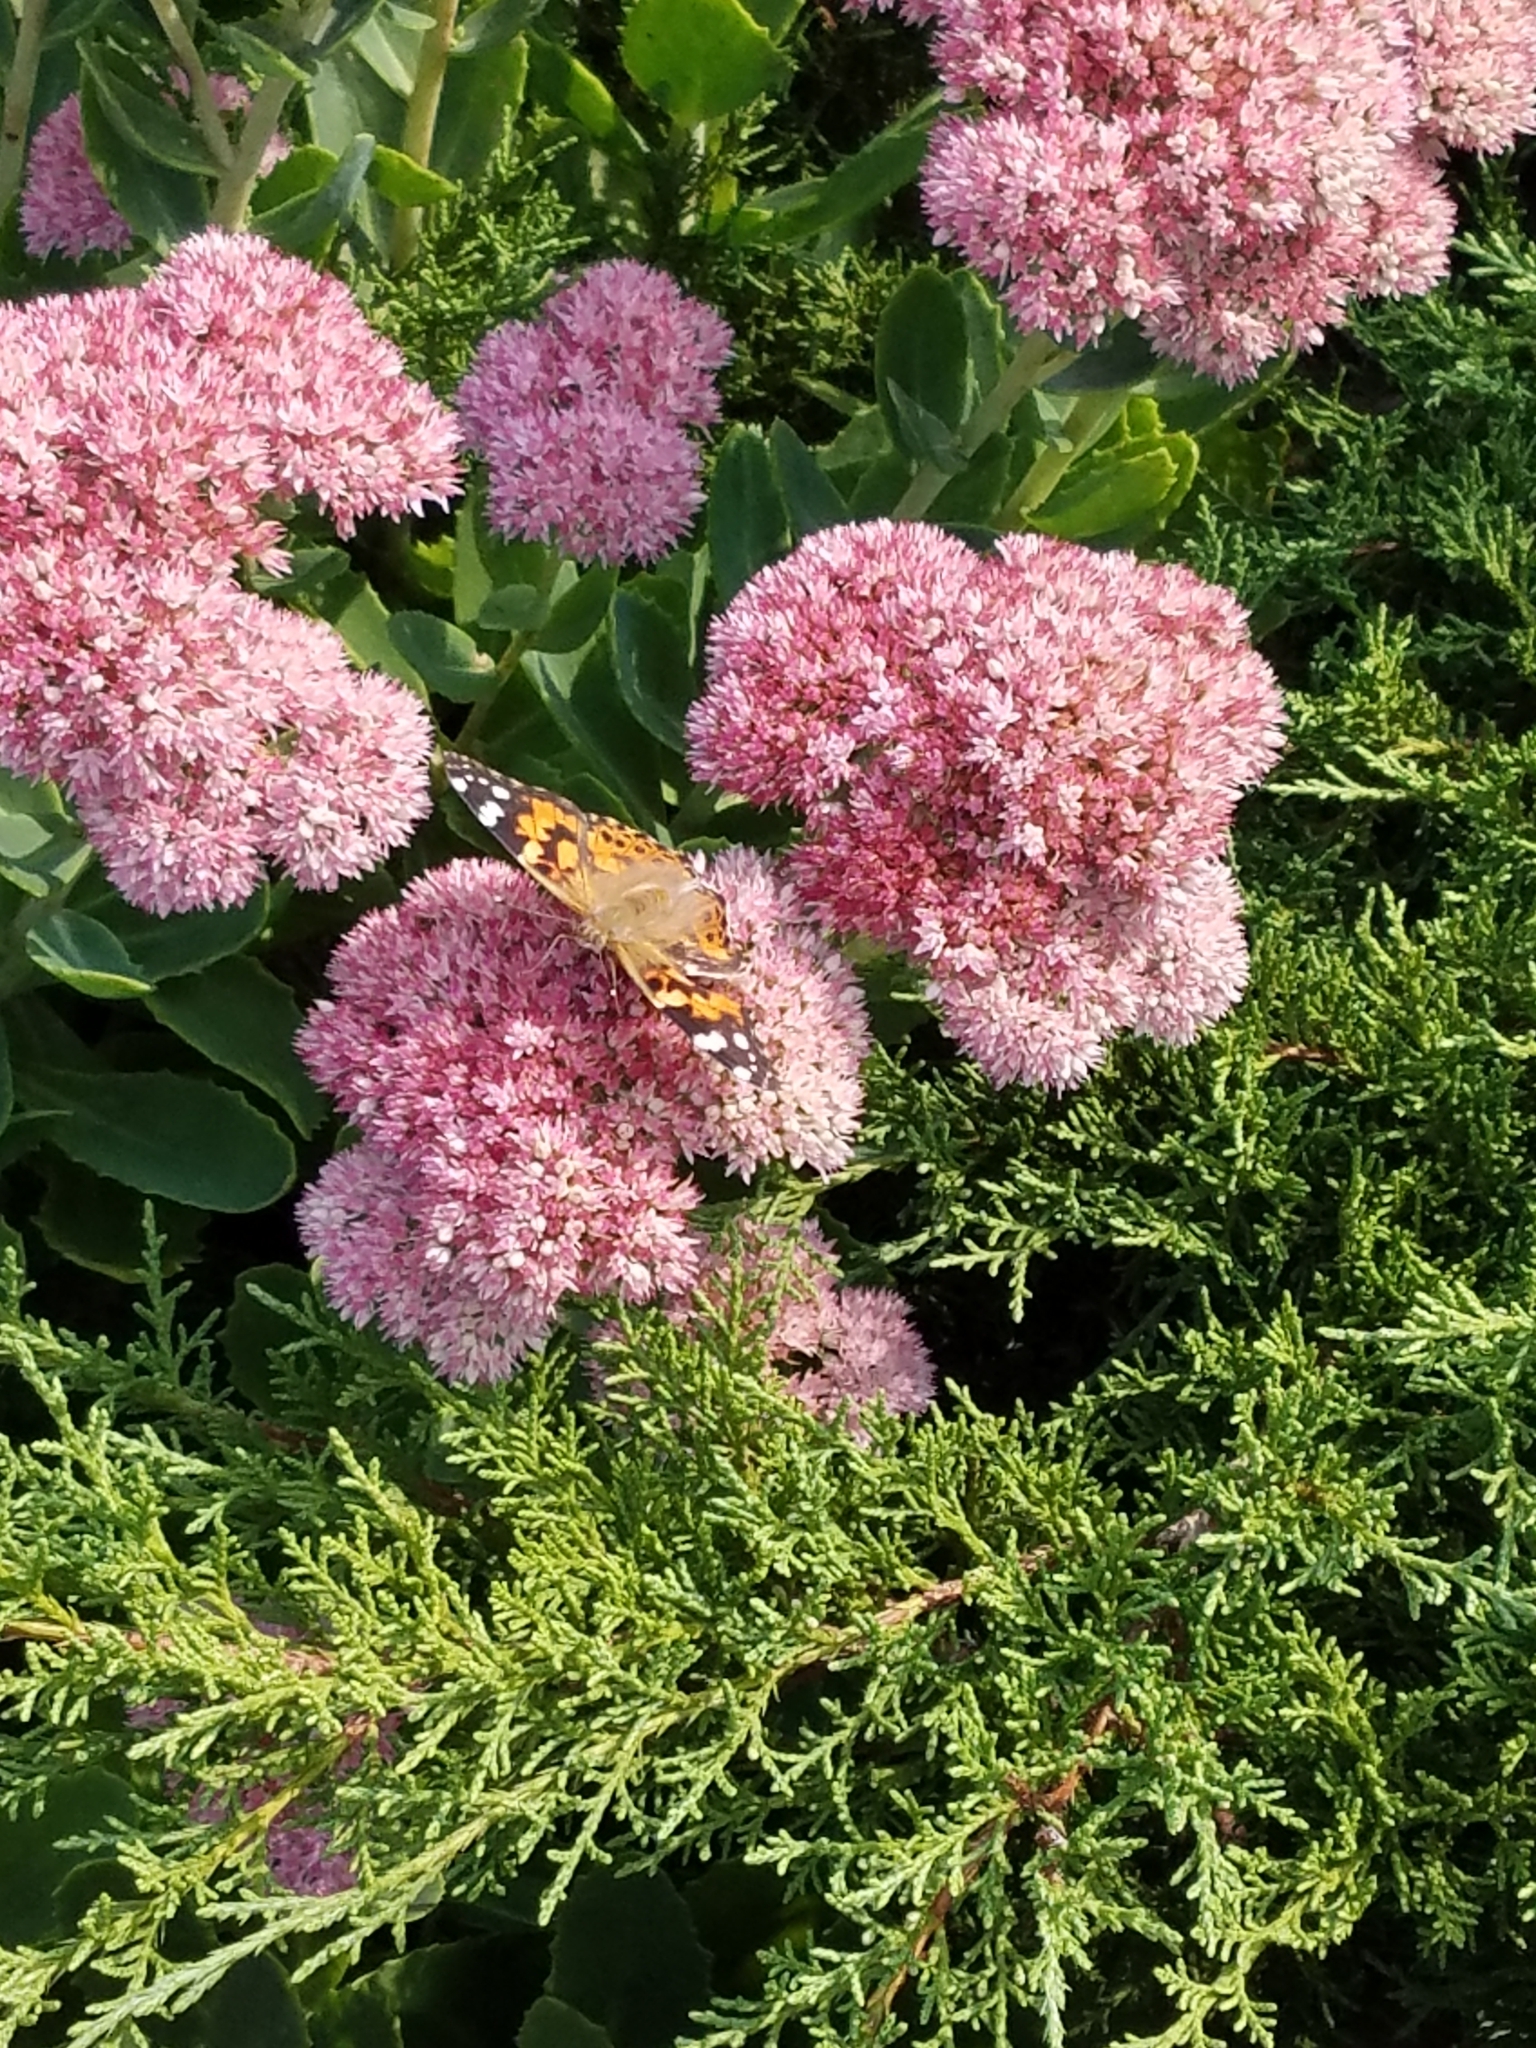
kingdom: Animalia
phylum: Arthropoda
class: Insecta
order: Lepidoptera
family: Nymphalidae
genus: Vanessa
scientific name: Vanessa cardui
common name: Painted lady
